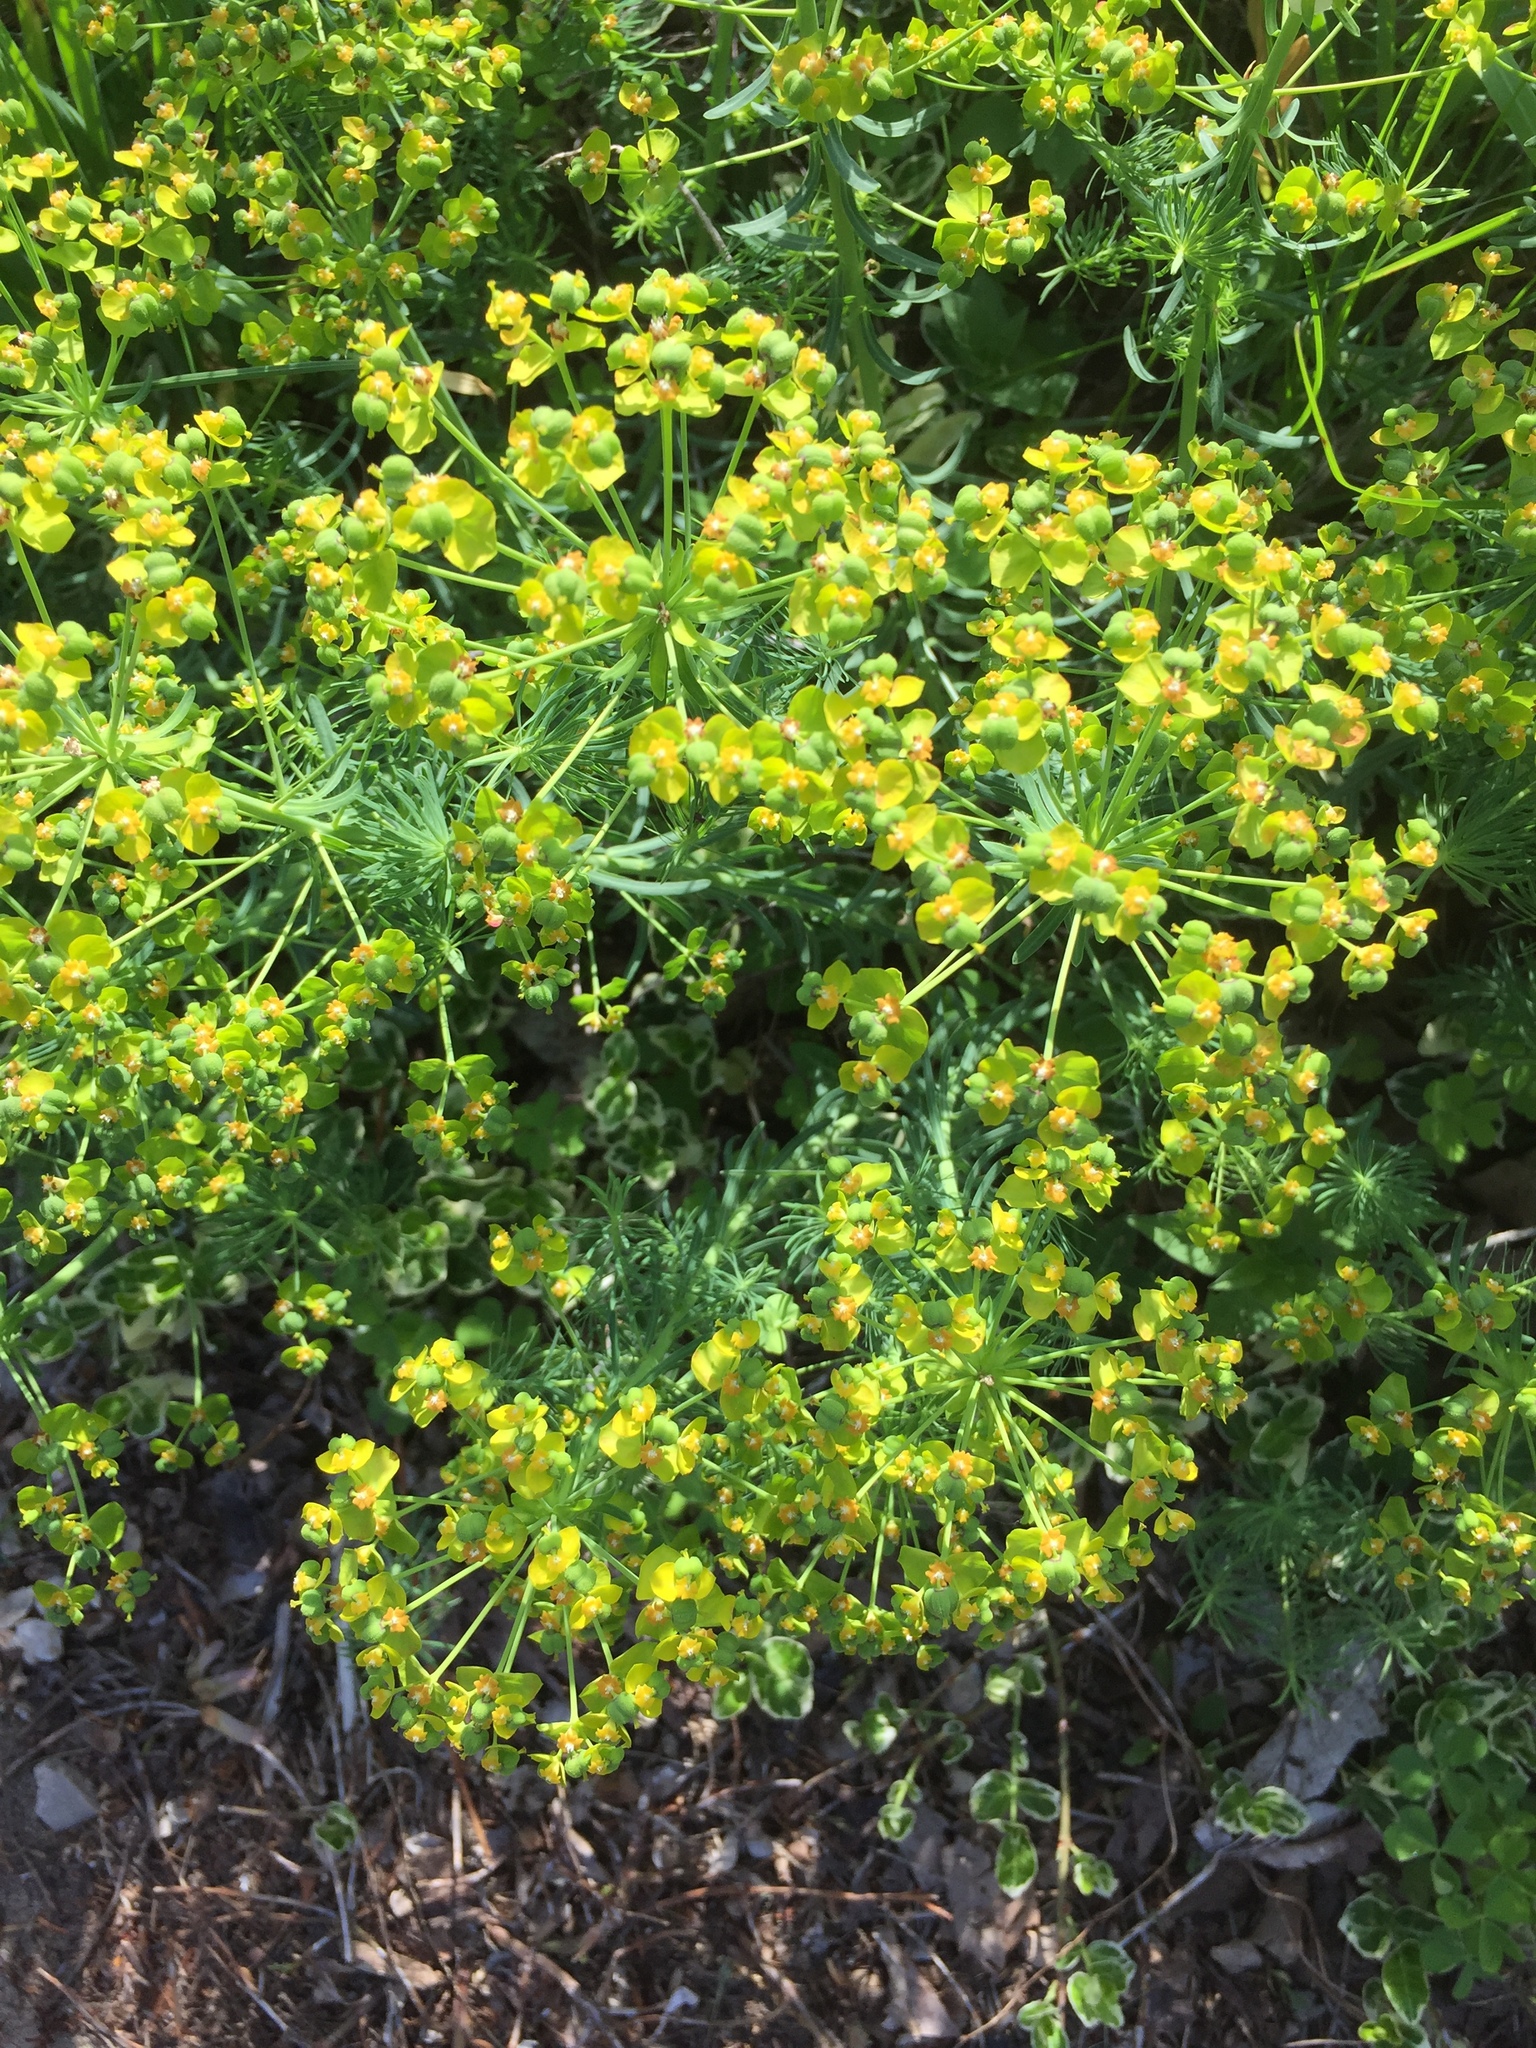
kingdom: Plantae
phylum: Tracheophyta
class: Magnoliopsida
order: Malpighiales
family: Euphorbiaceae
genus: Euphorbia
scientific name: Euphorbia cyparissias
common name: Cypress spurge
